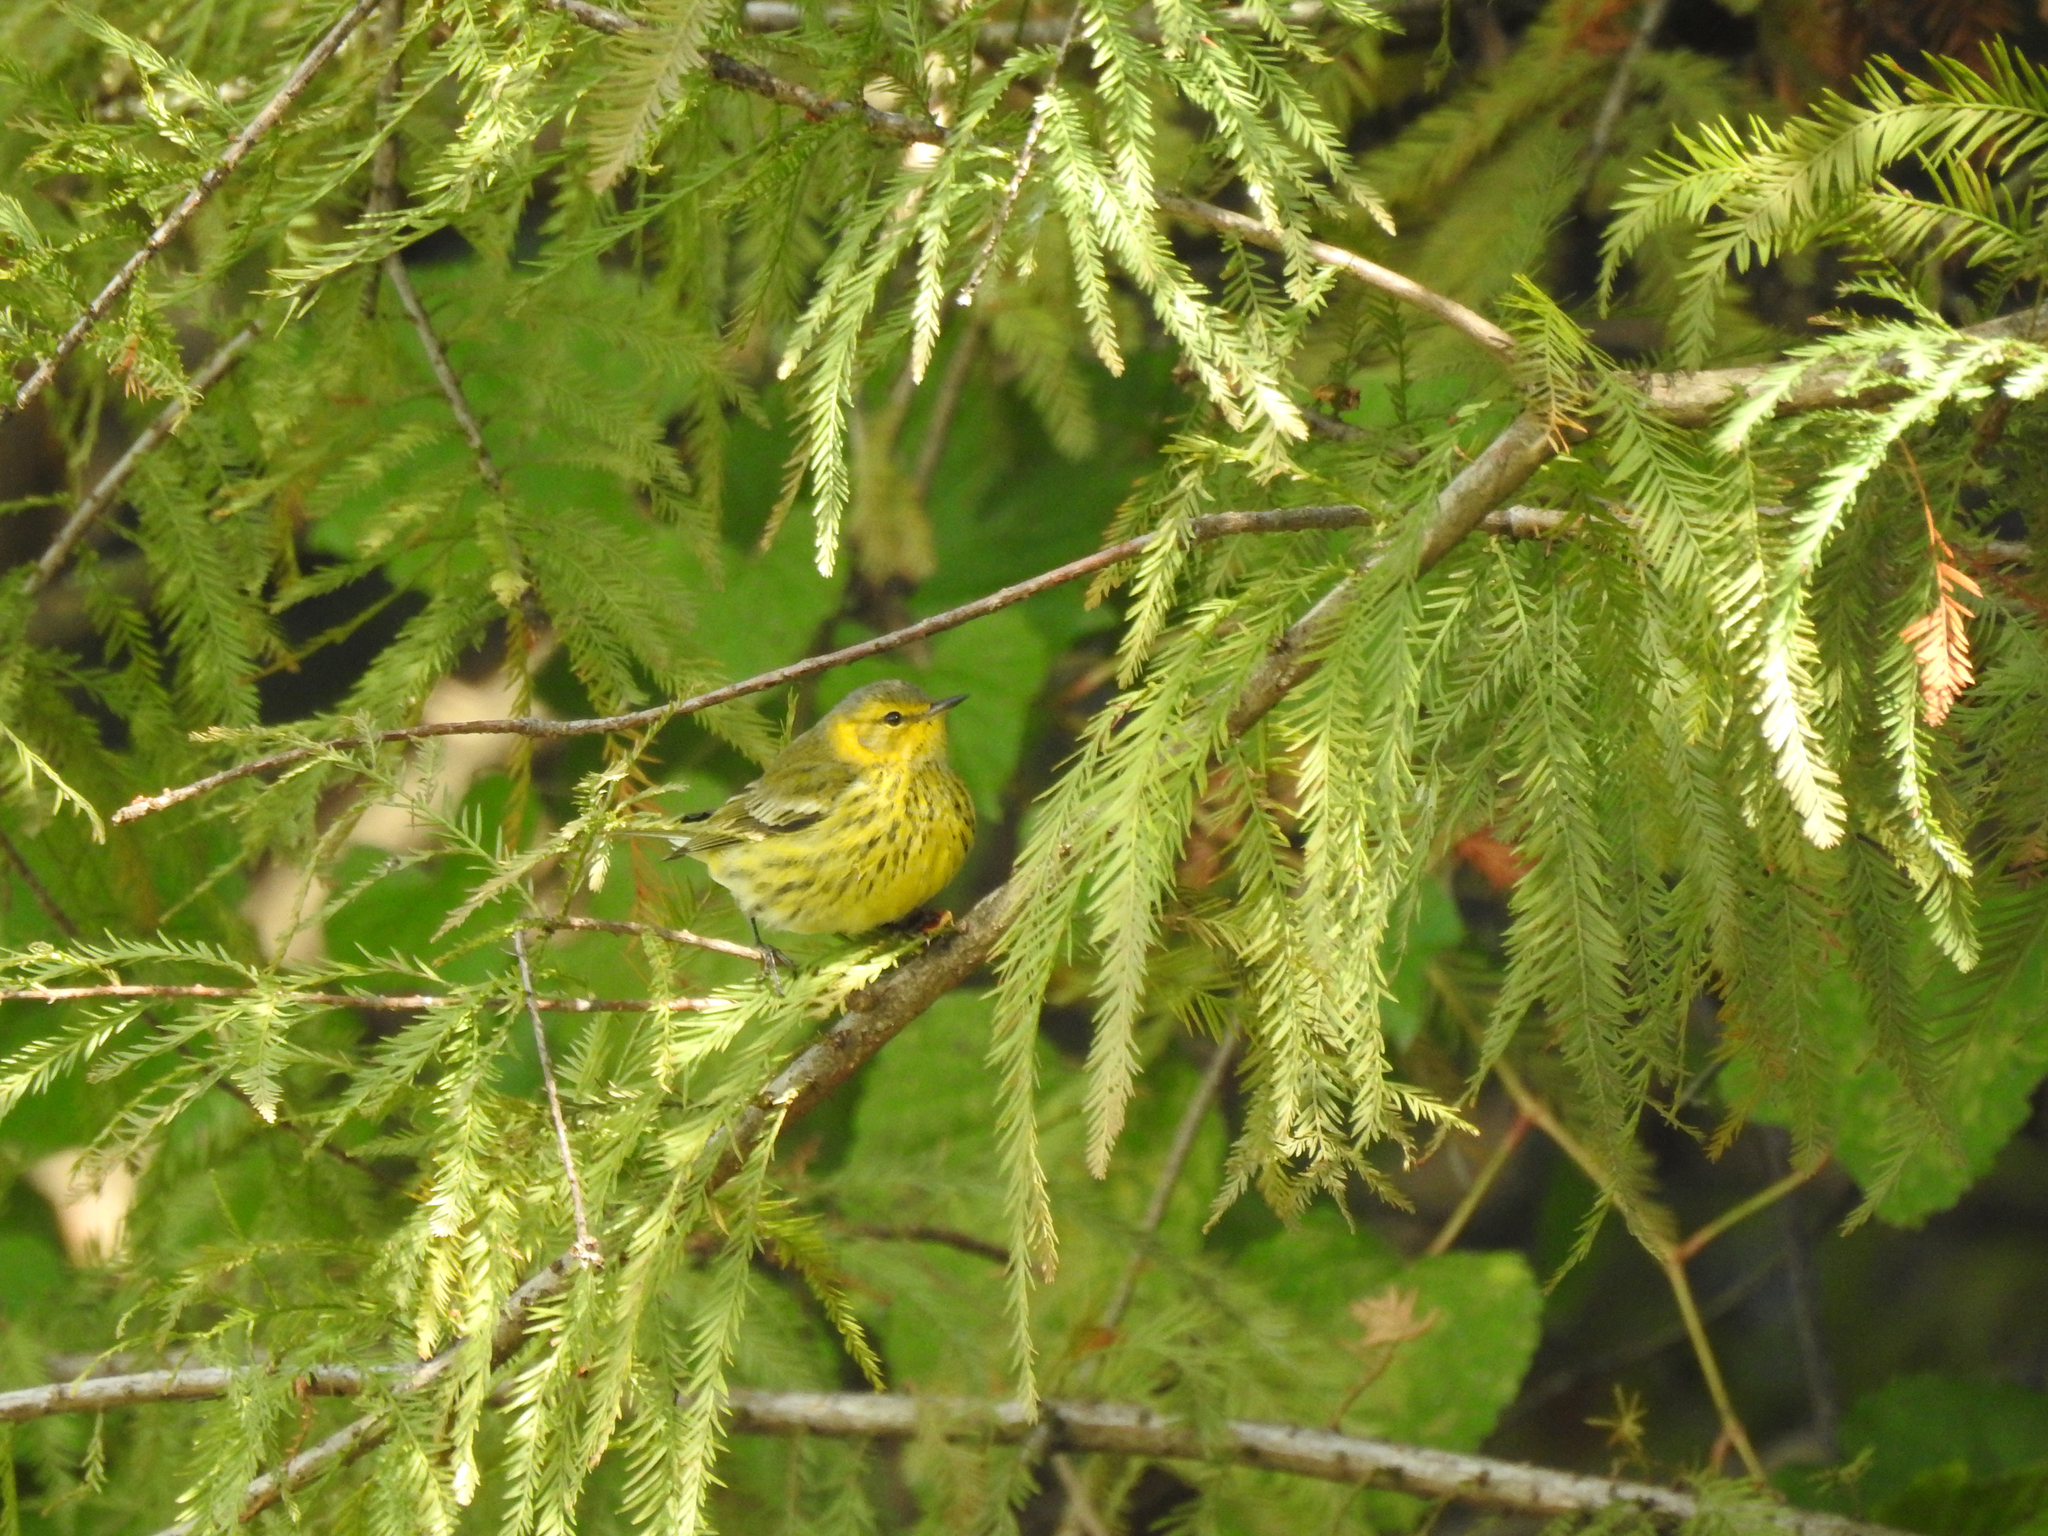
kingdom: Animalia
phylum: Chordata
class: Aves
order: Passeriformes
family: Parulidae
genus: Setophaga
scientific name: Setophaga tigrina
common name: Cape may warbler
